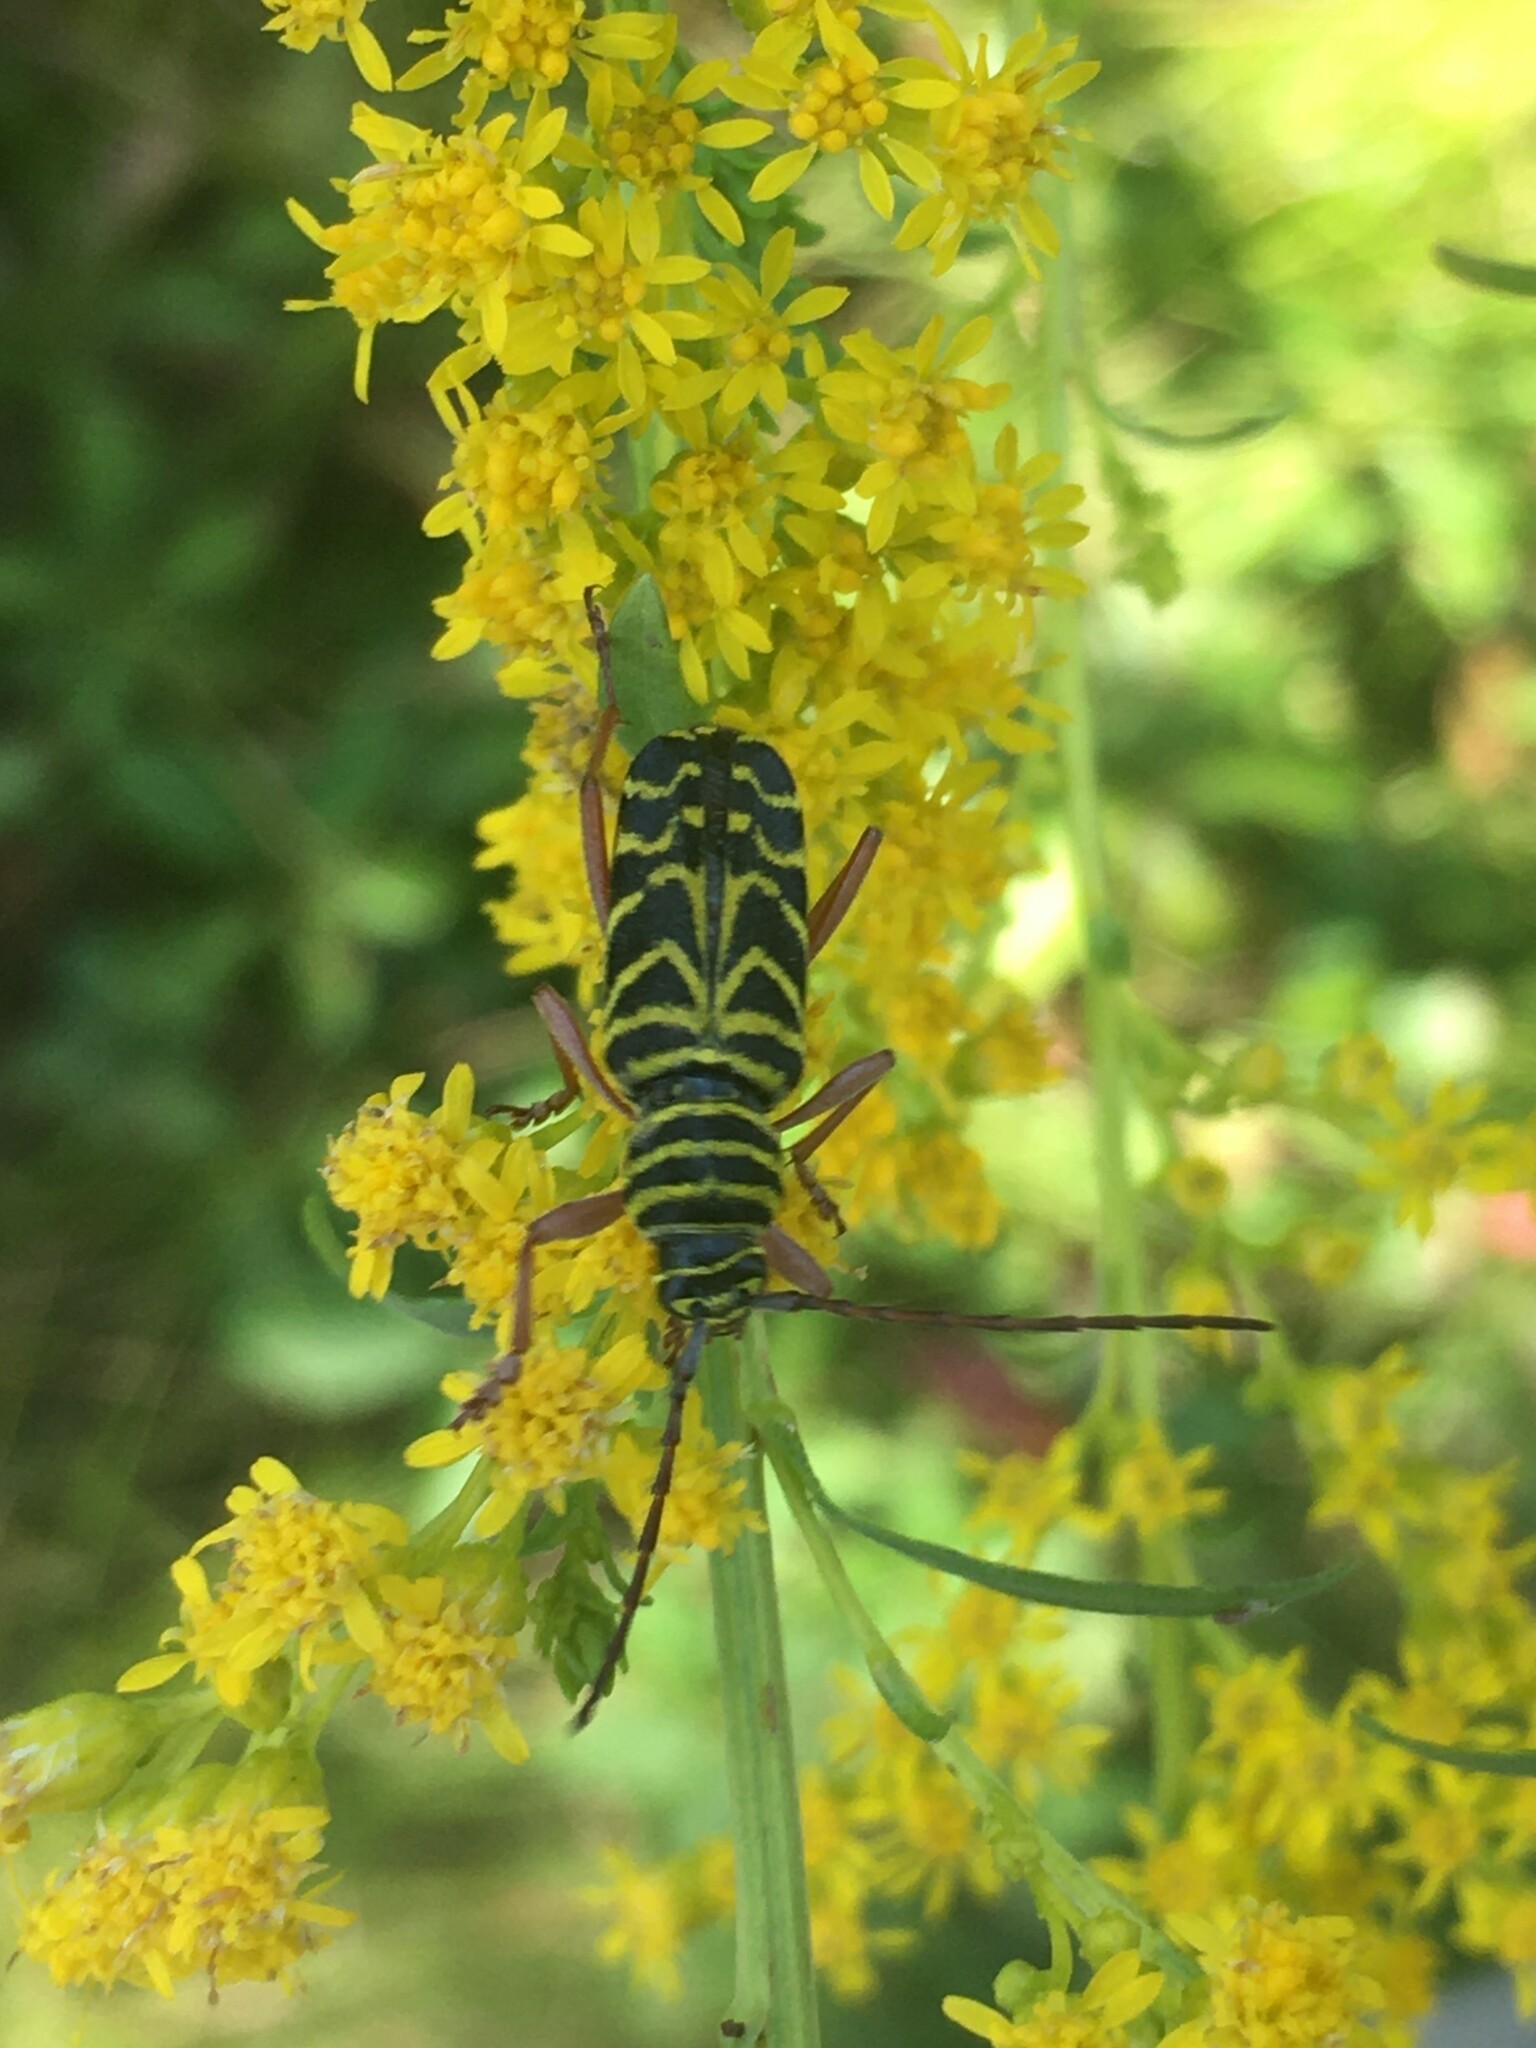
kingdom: Animalia
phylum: Arthropoda
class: Insecta
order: Coleoptera
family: Cerambycidae
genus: Megacyllene
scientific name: Megacyllene robiniae
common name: Locust borer
